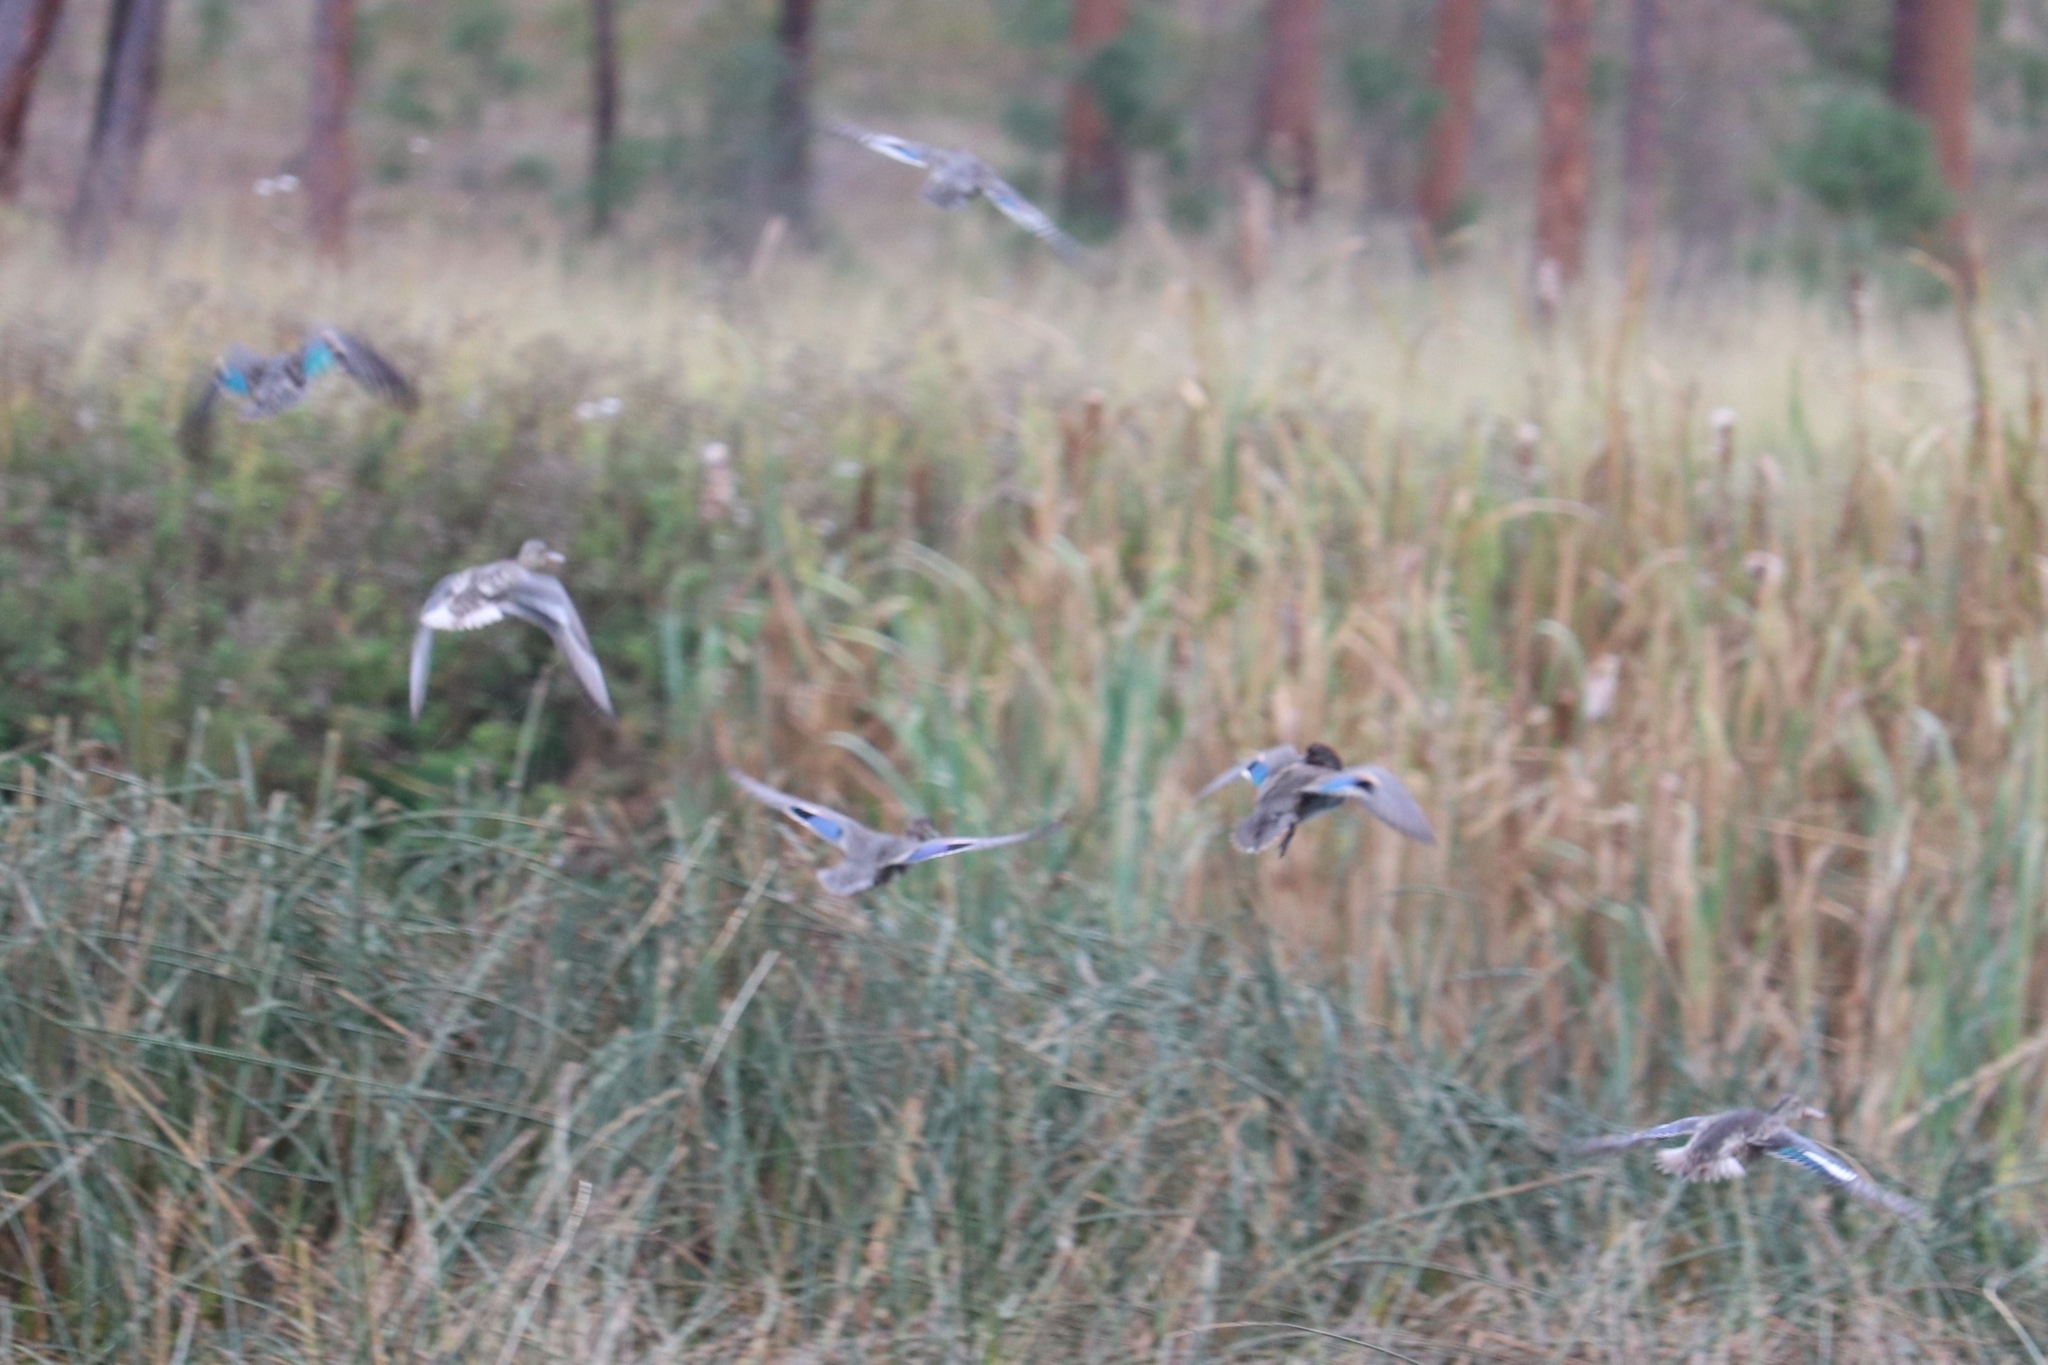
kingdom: Animalia
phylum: Chordata
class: Aves
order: Anseriformes
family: Anatidae
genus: Anas
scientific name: Anas crecca
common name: Eurasian teal
